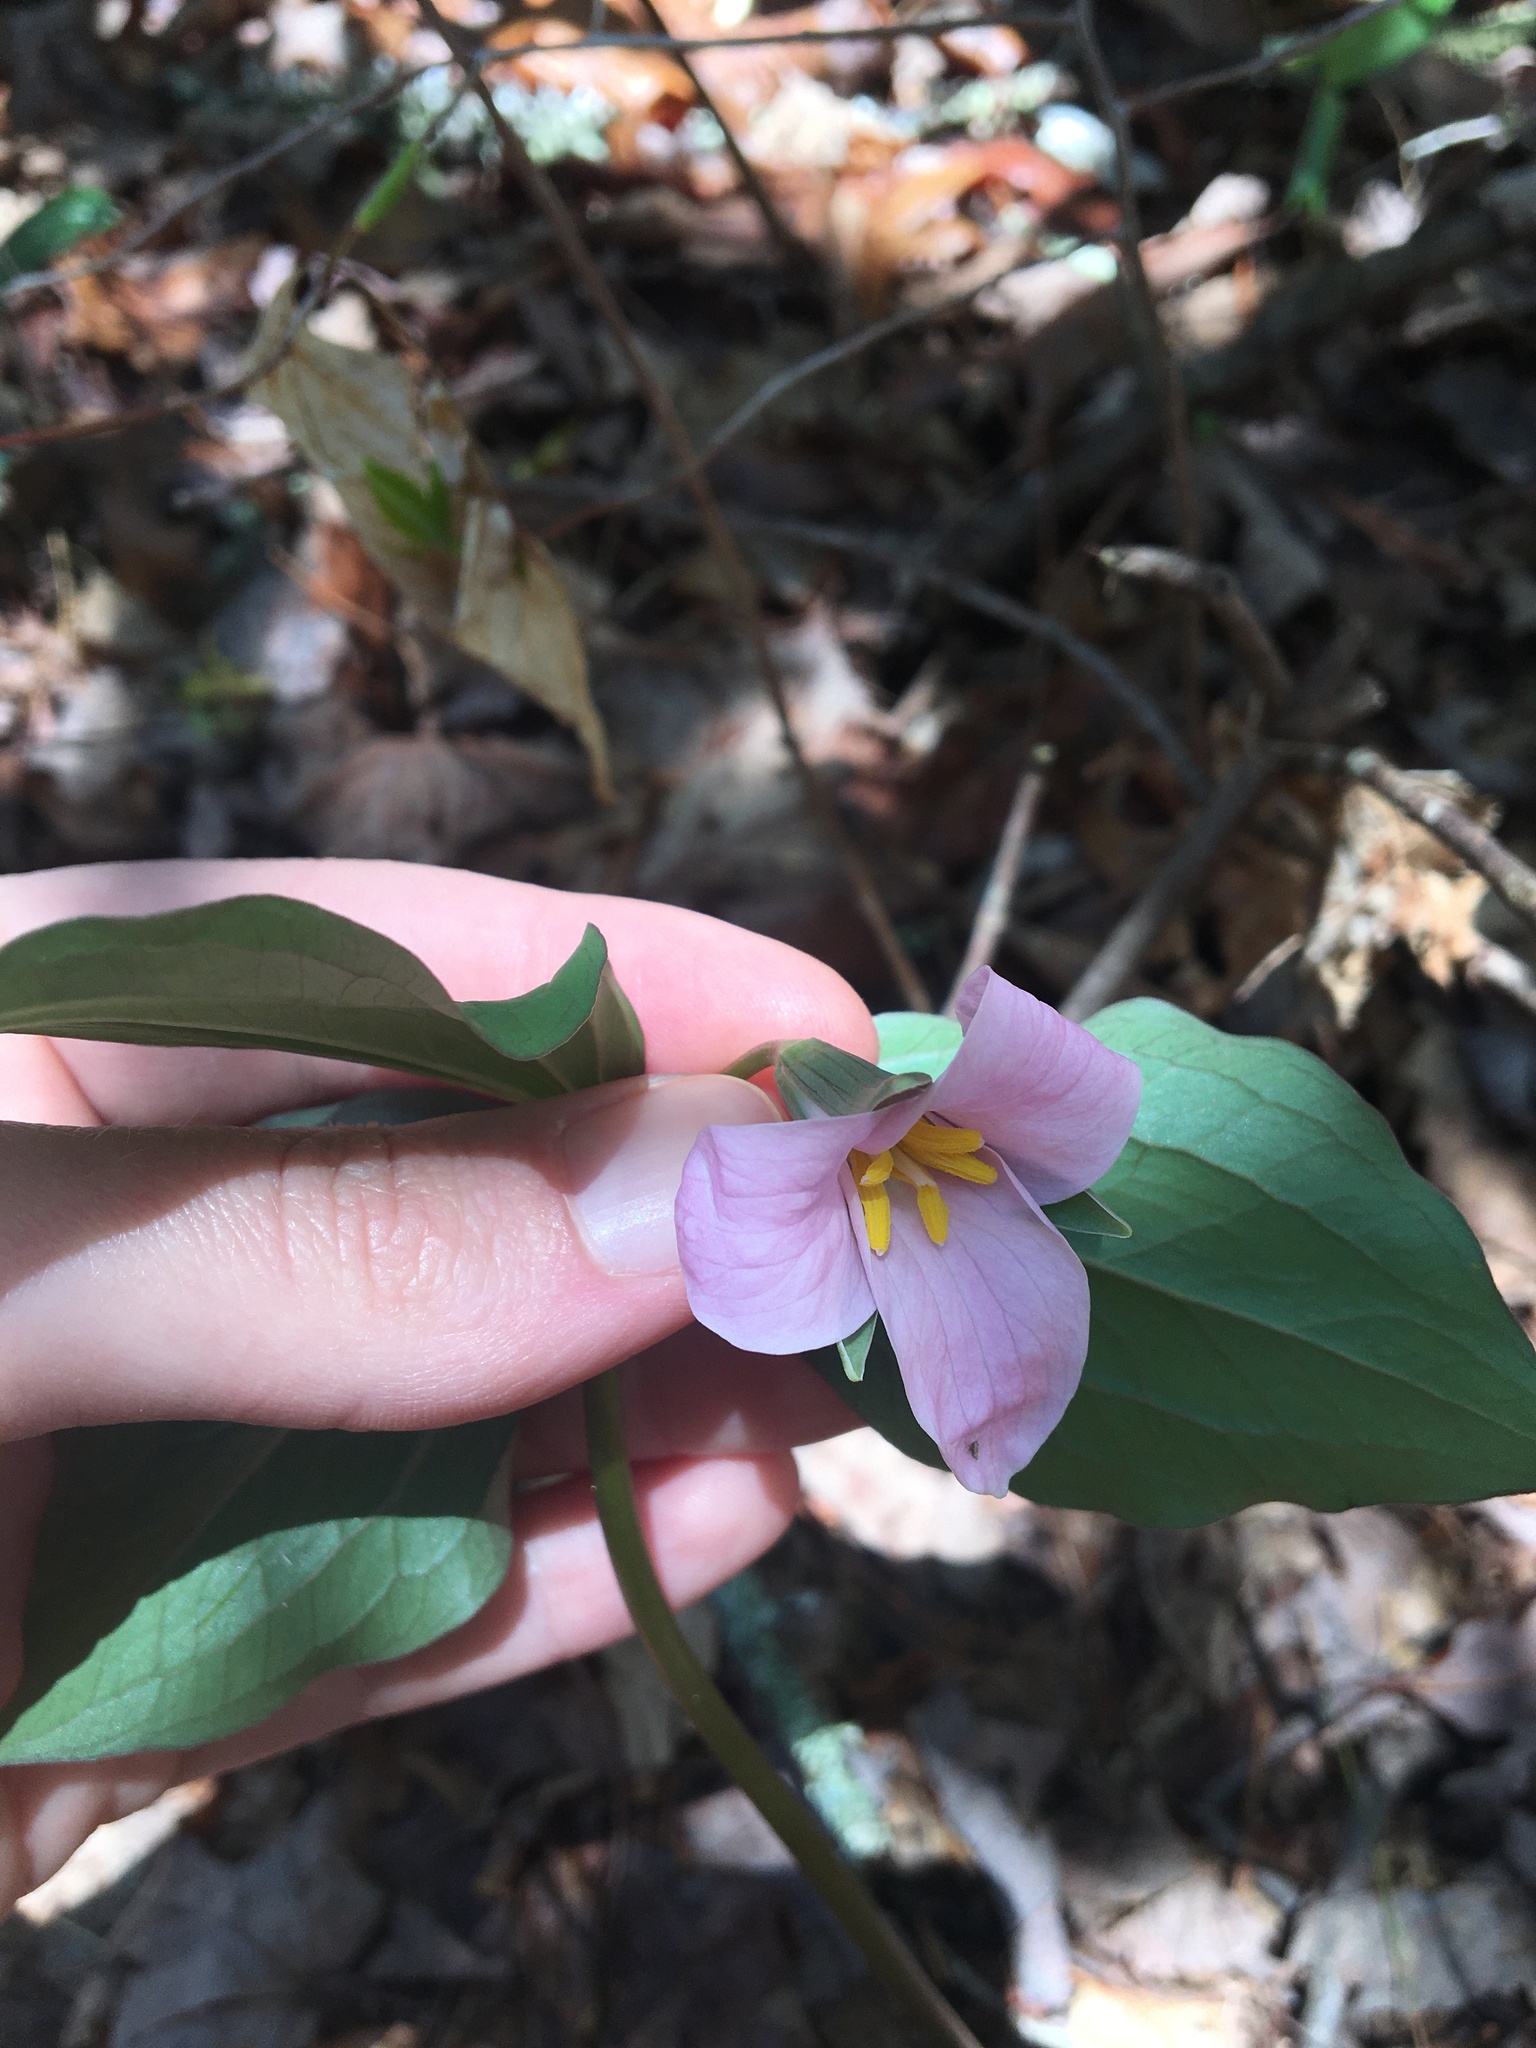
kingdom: Plantae
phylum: Tracheophyta
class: Liliopsida
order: Liliales
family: Melanthiaceae
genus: Trillium
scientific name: Trillium catesbaei
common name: Bashful trillium
